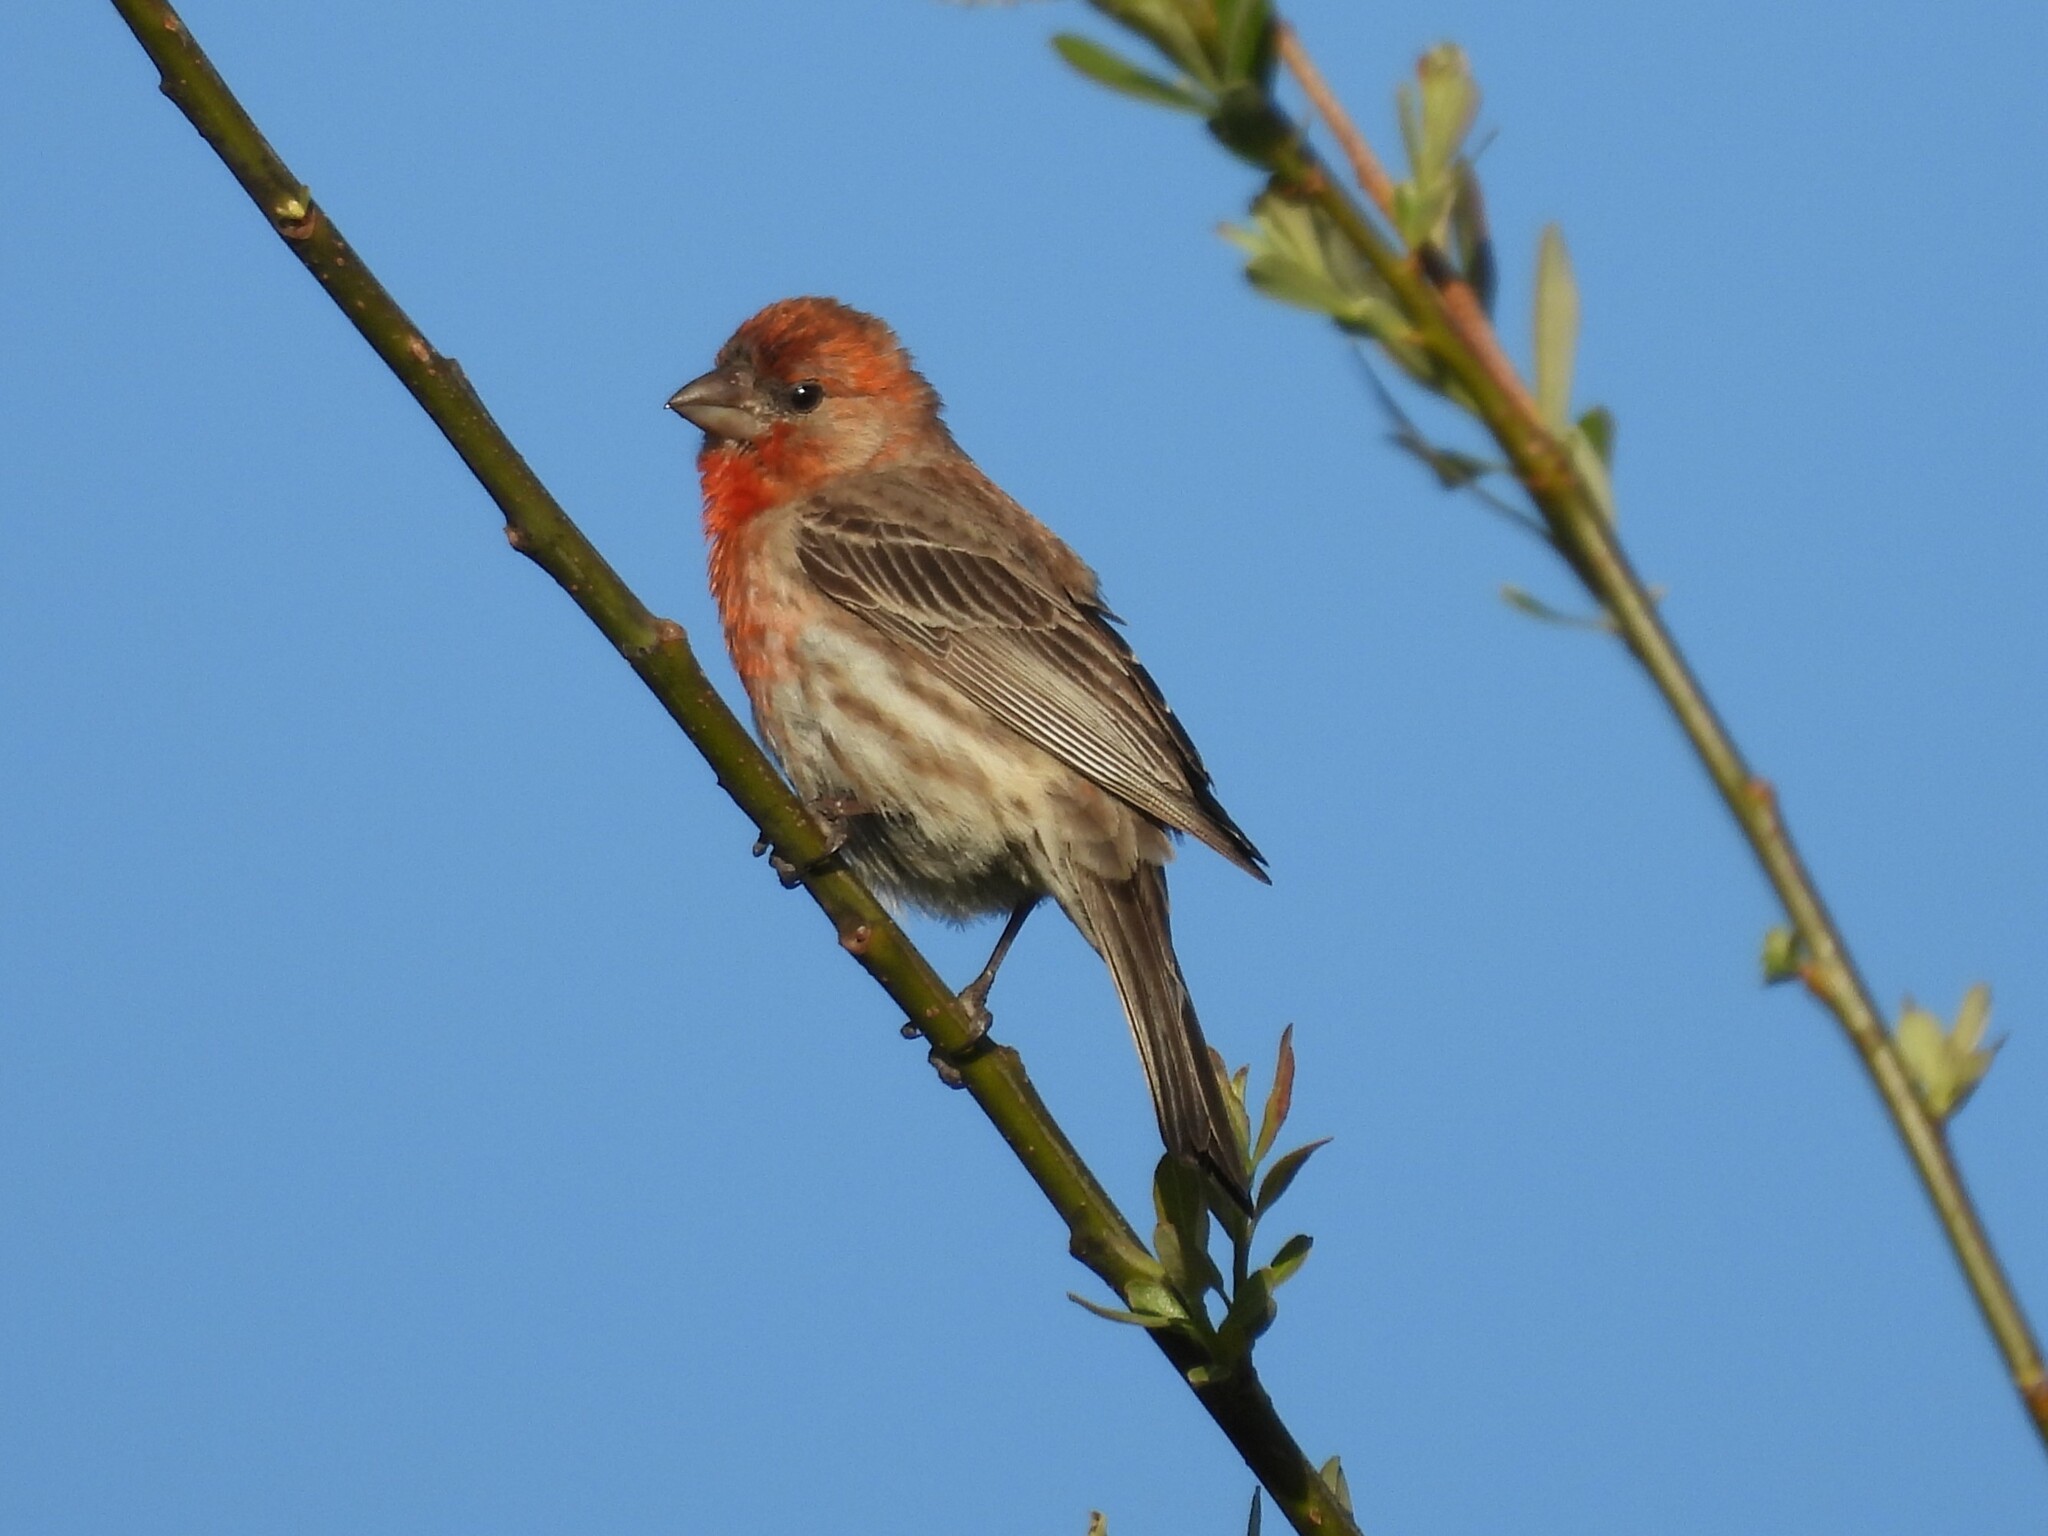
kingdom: Animalia
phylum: Chordata
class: Aves
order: Passeriformes
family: Fringillidae
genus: Haemorhous
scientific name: Haemorhous mexicanus
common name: House finch
